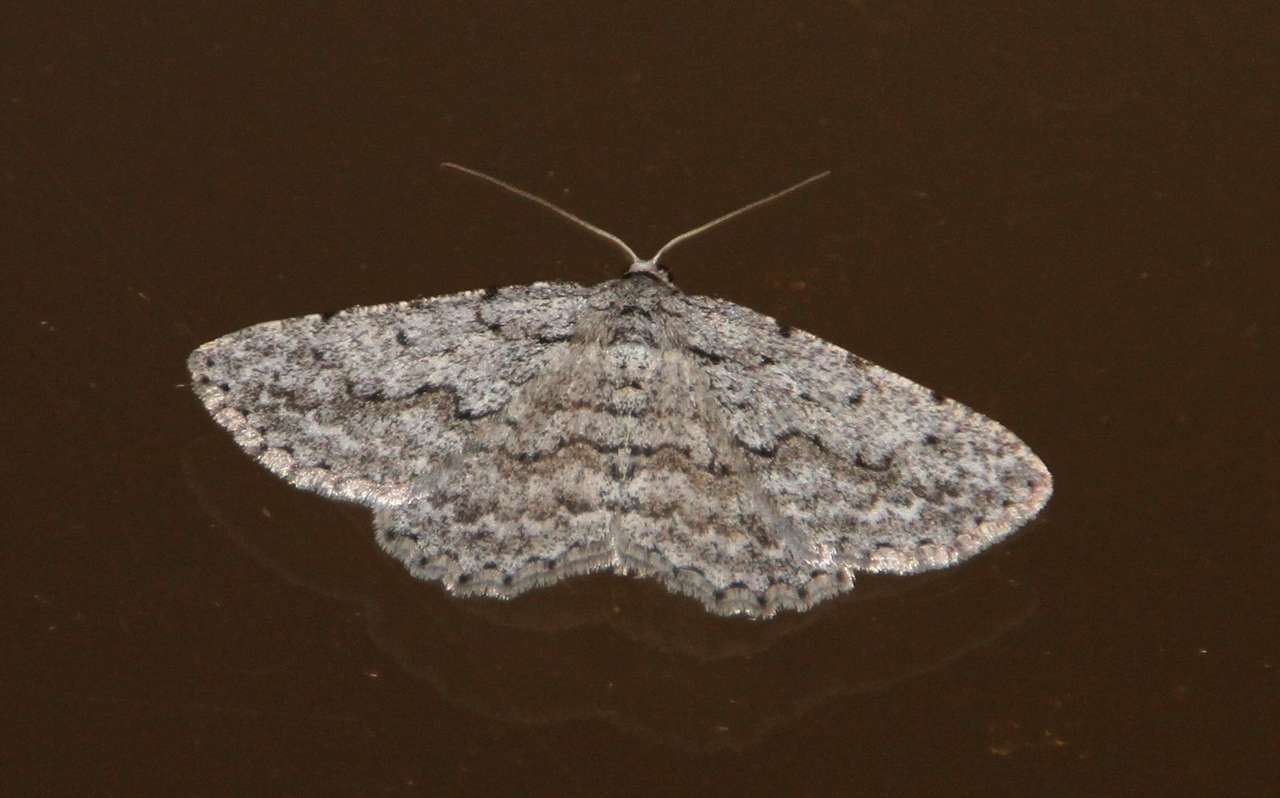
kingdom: Animalia
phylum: Arthropoda
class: Insecta
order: Lepidoptera
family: Geometridae
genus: Psilosticha
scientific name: Psilosticha absorpta
